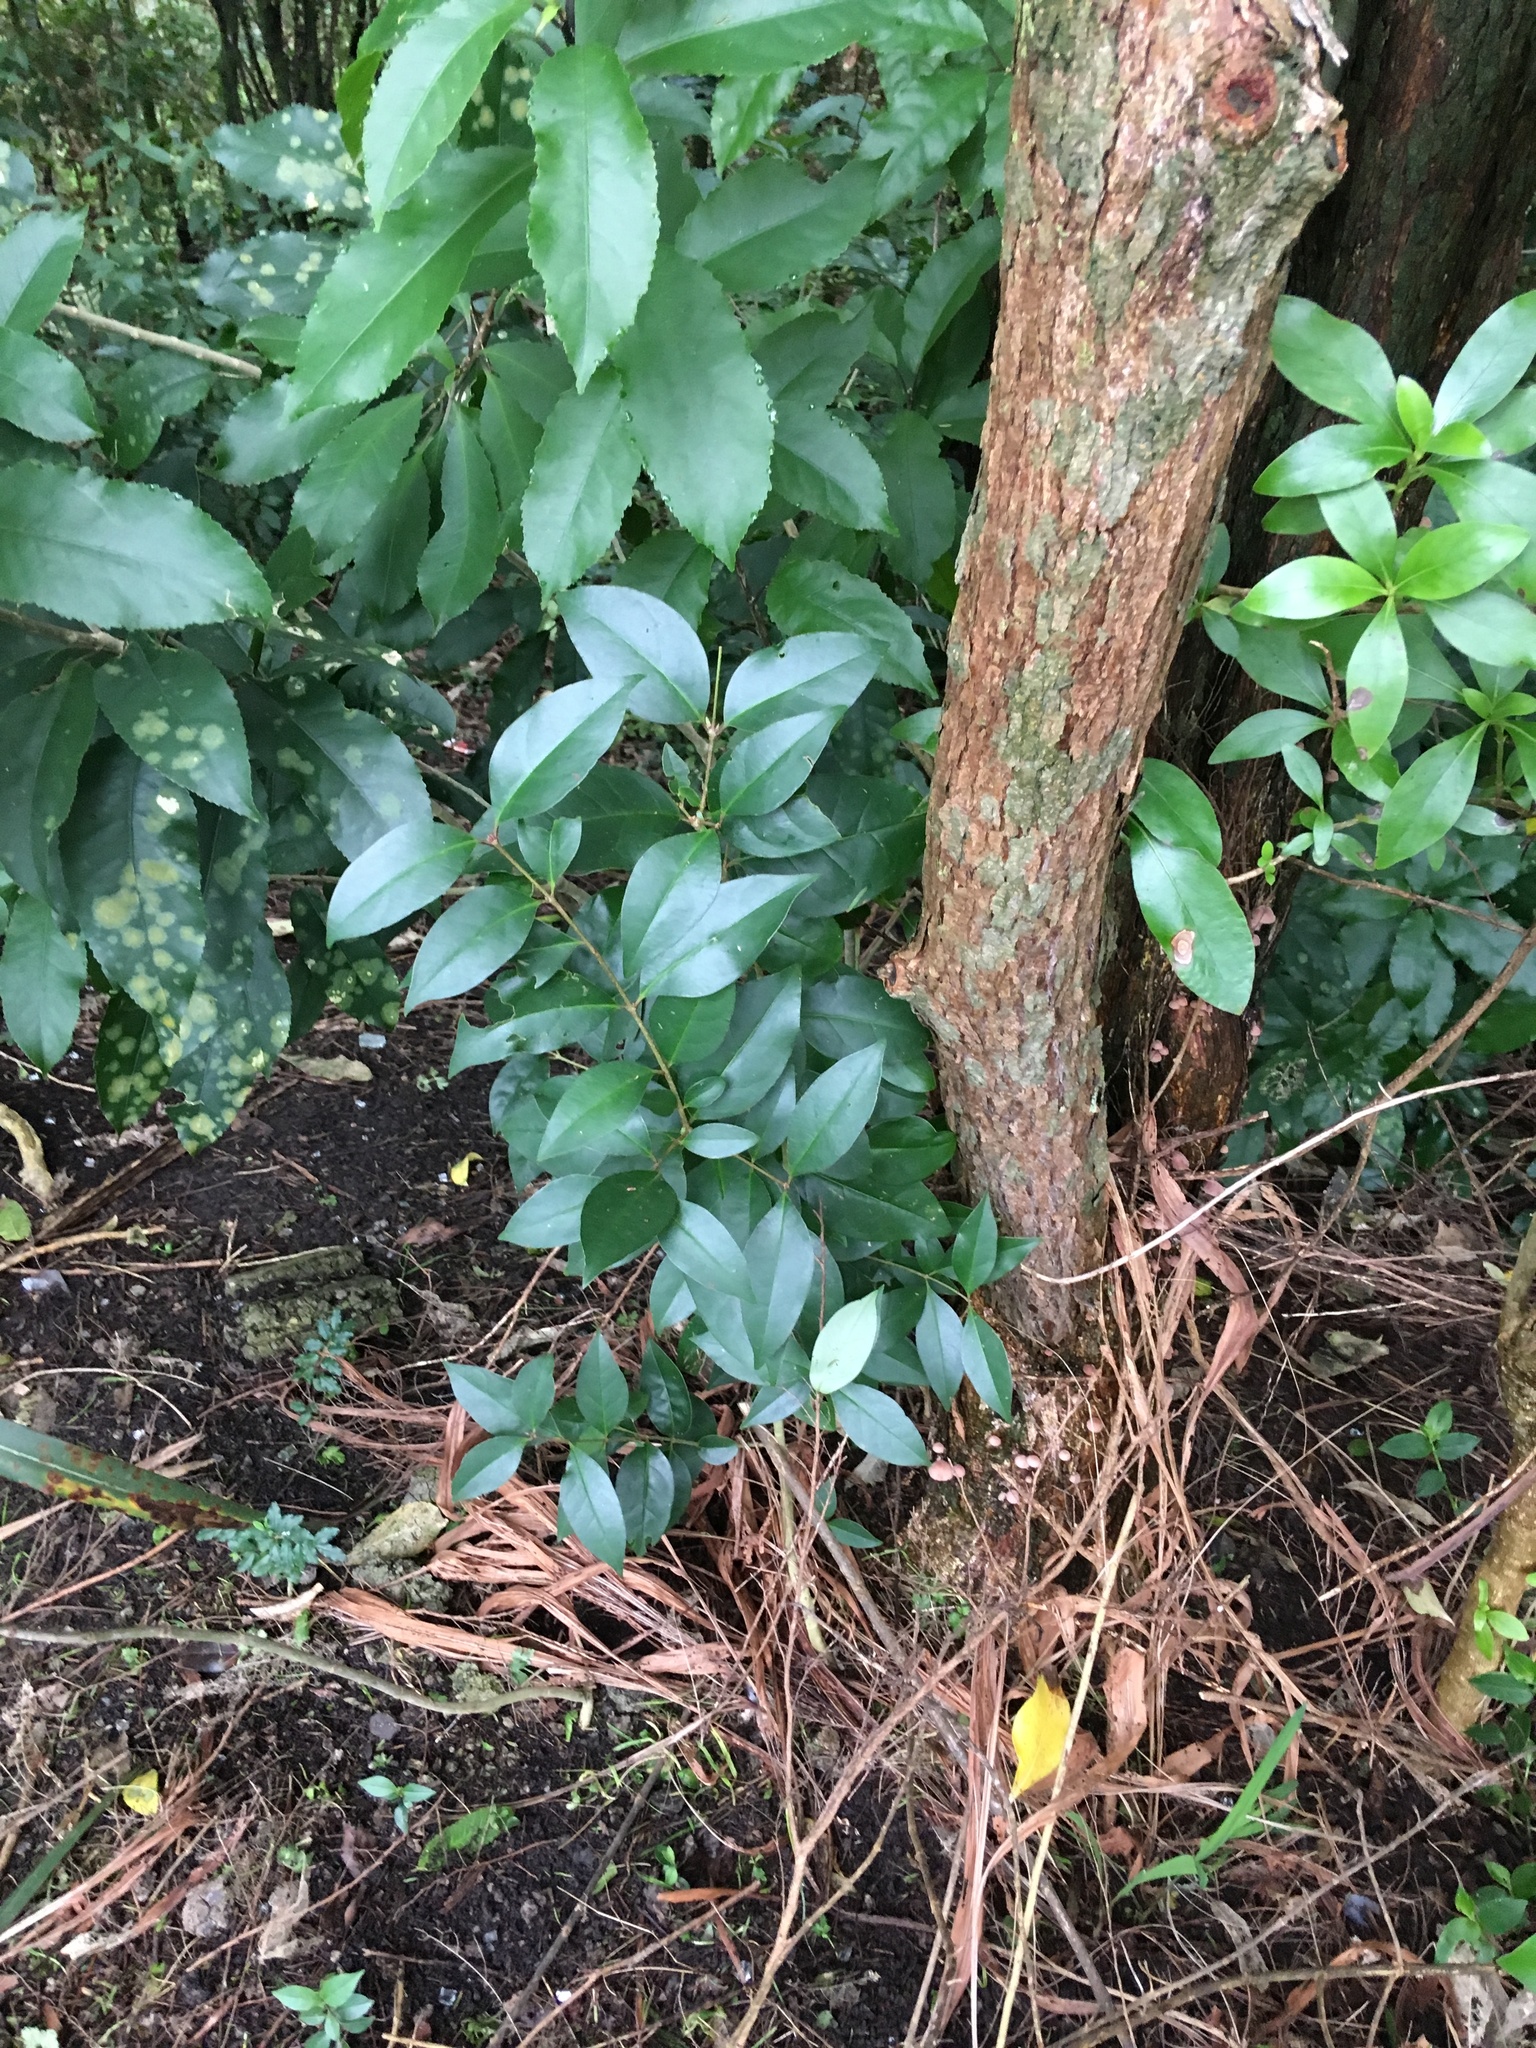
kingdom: Plantae
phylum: Tracheophyta
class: Magnoliopsida
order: Lamiales
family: Oleaceae
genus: Ligustrum
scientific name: Ligustrum lucidum
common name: Glossy privet
